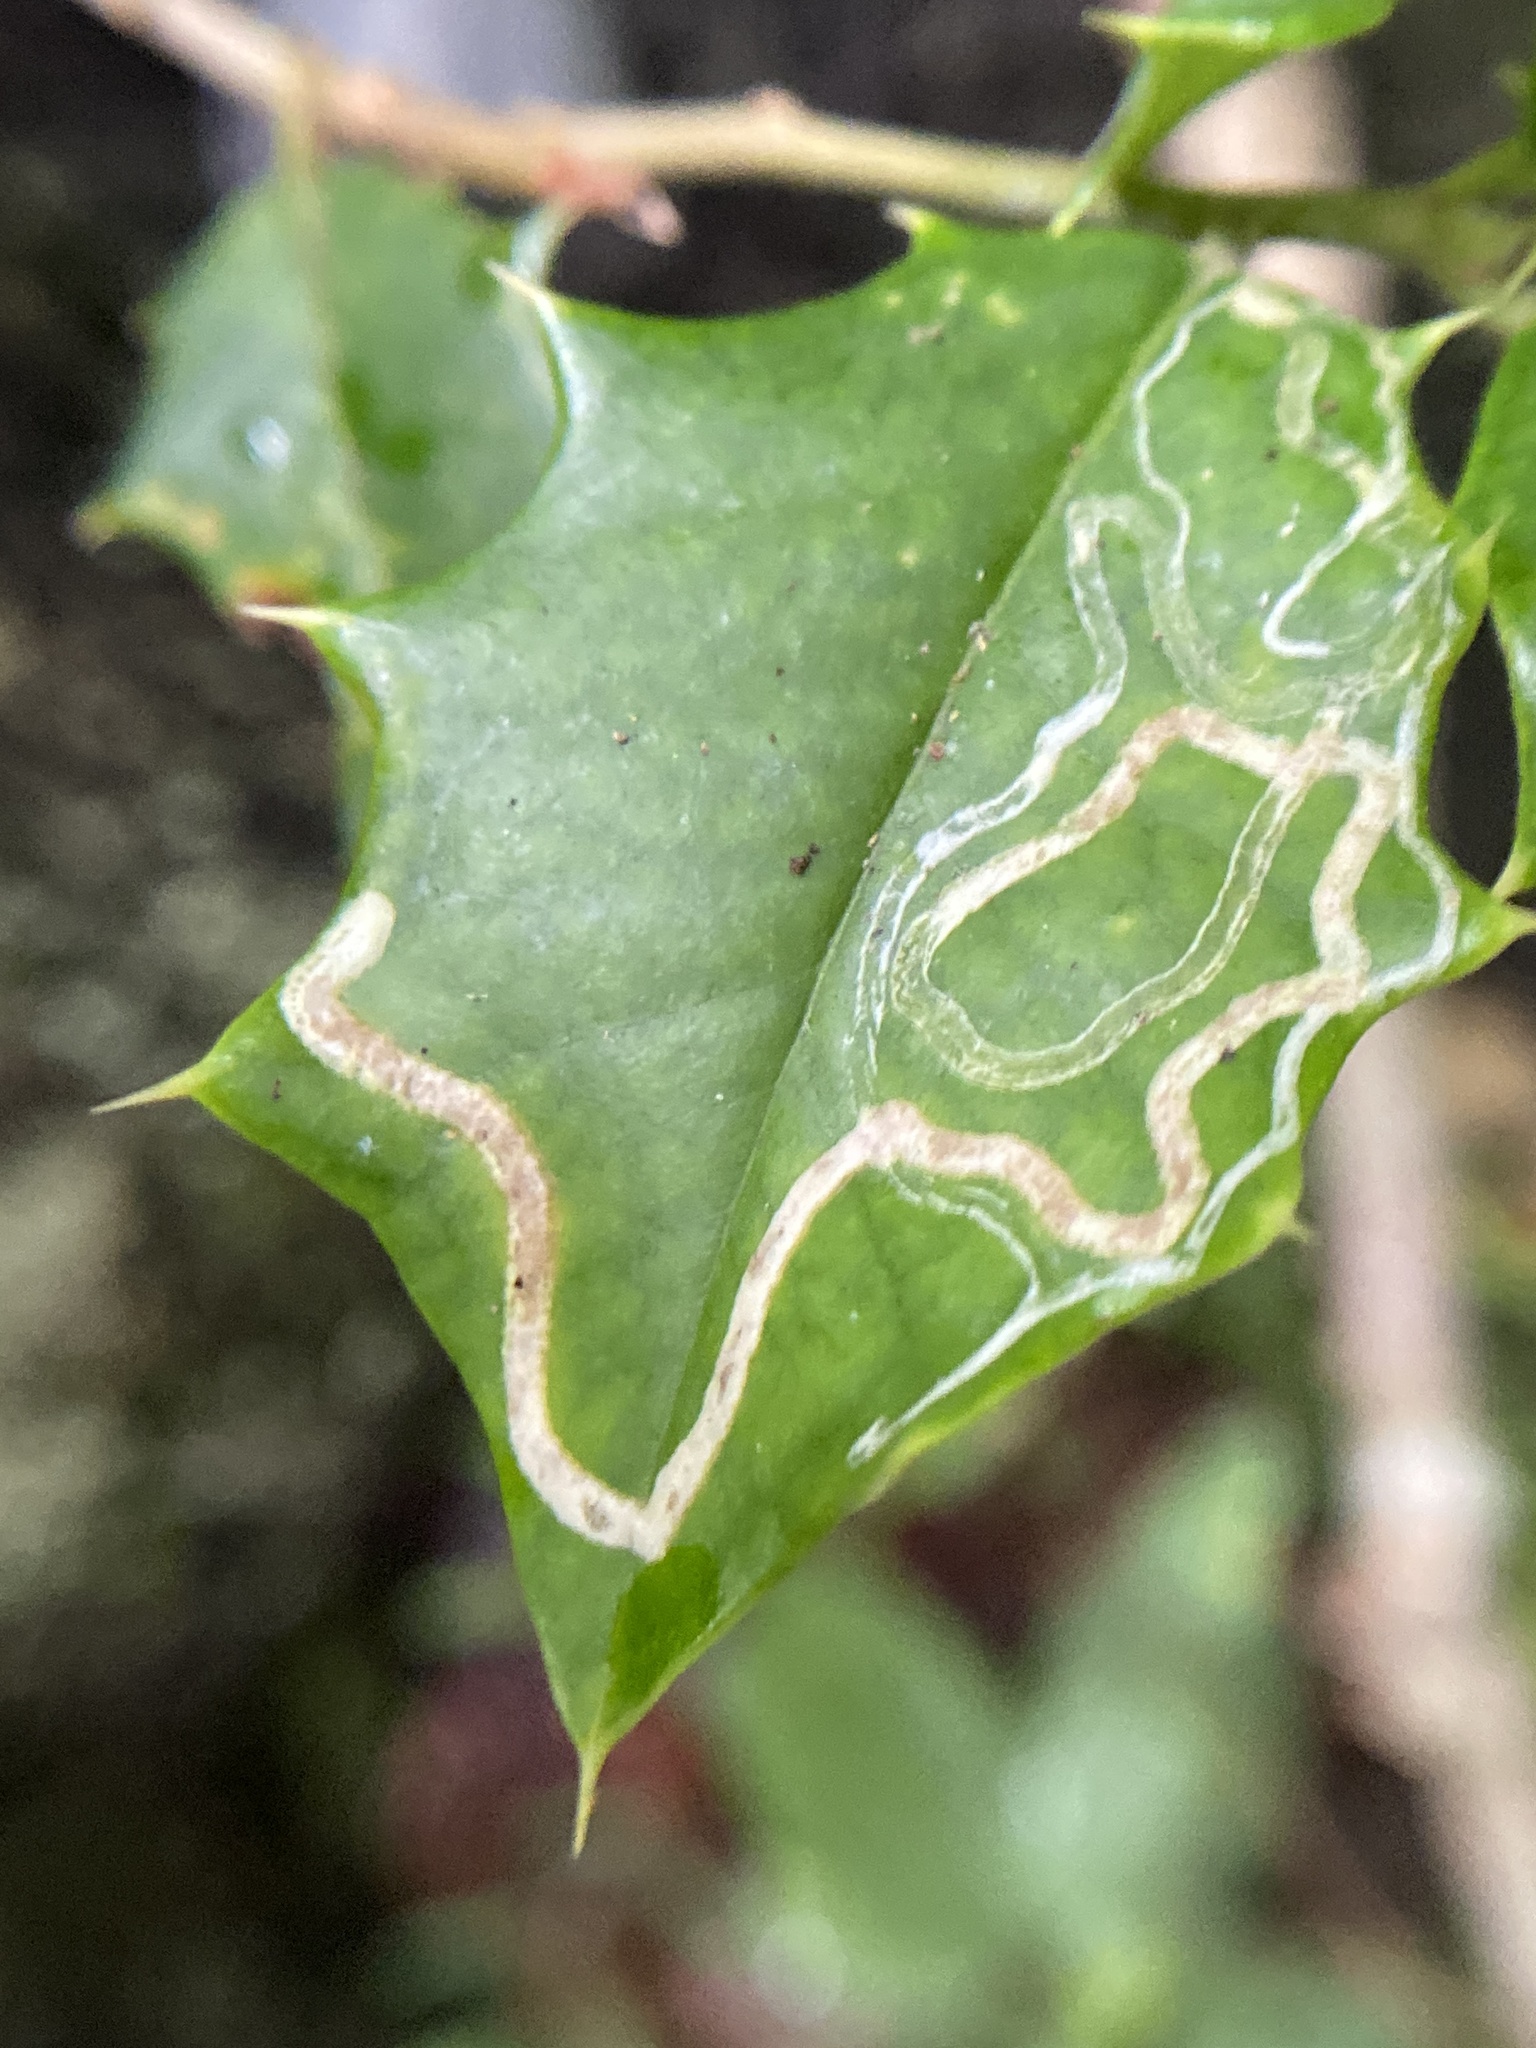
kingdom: Animalia
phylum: Arthropoda
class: Insecta
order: Diptera
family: Agromyzidae
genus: Phytomyza
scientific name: Phytomyza opacae
